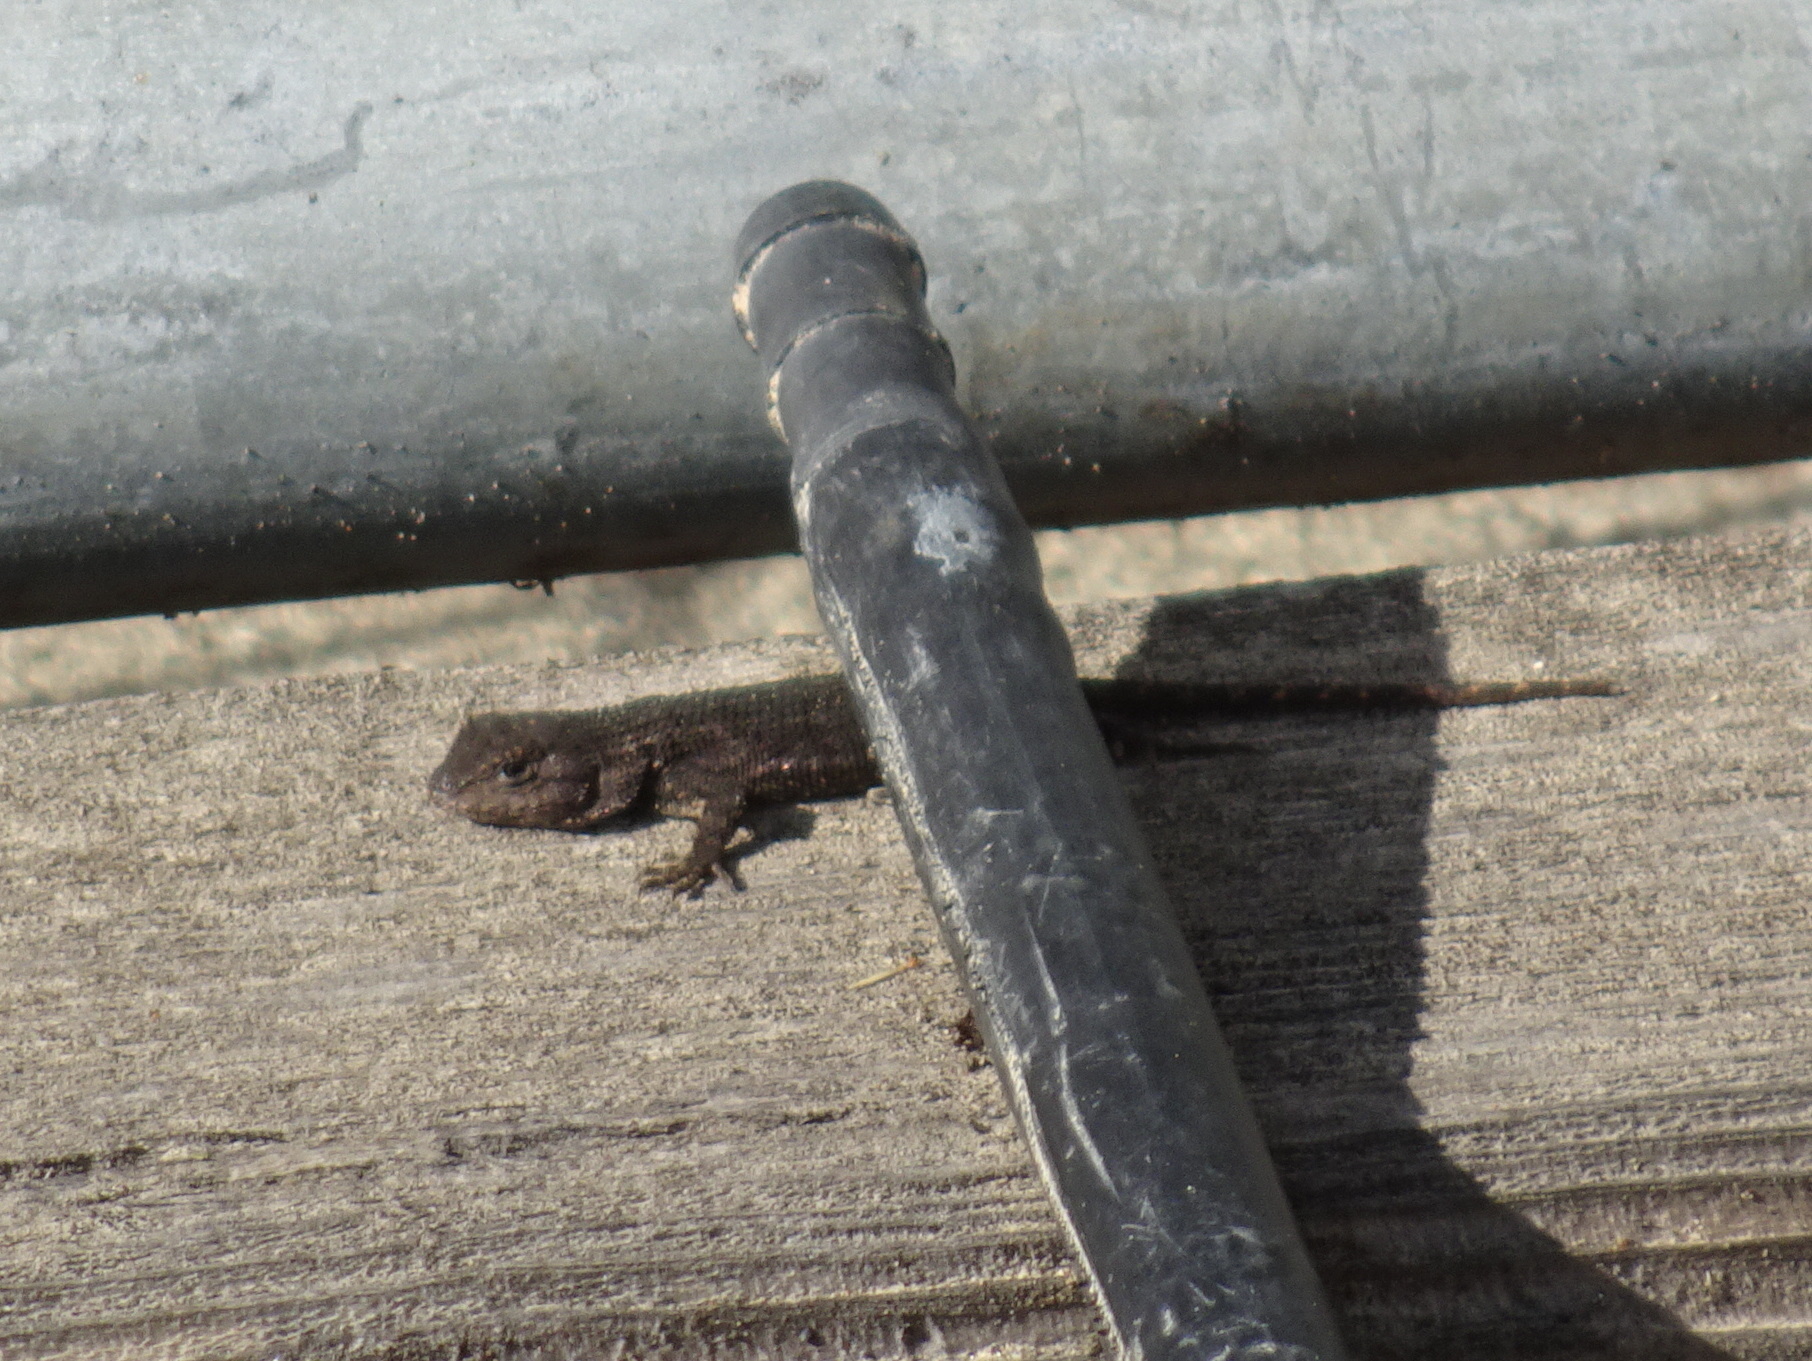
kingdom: Animalia
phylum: Chordata
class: Squamata
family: Phrynosomatidae
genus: Sceloporus
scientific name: Sceloporus occidentalis
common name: Western fence lizard
